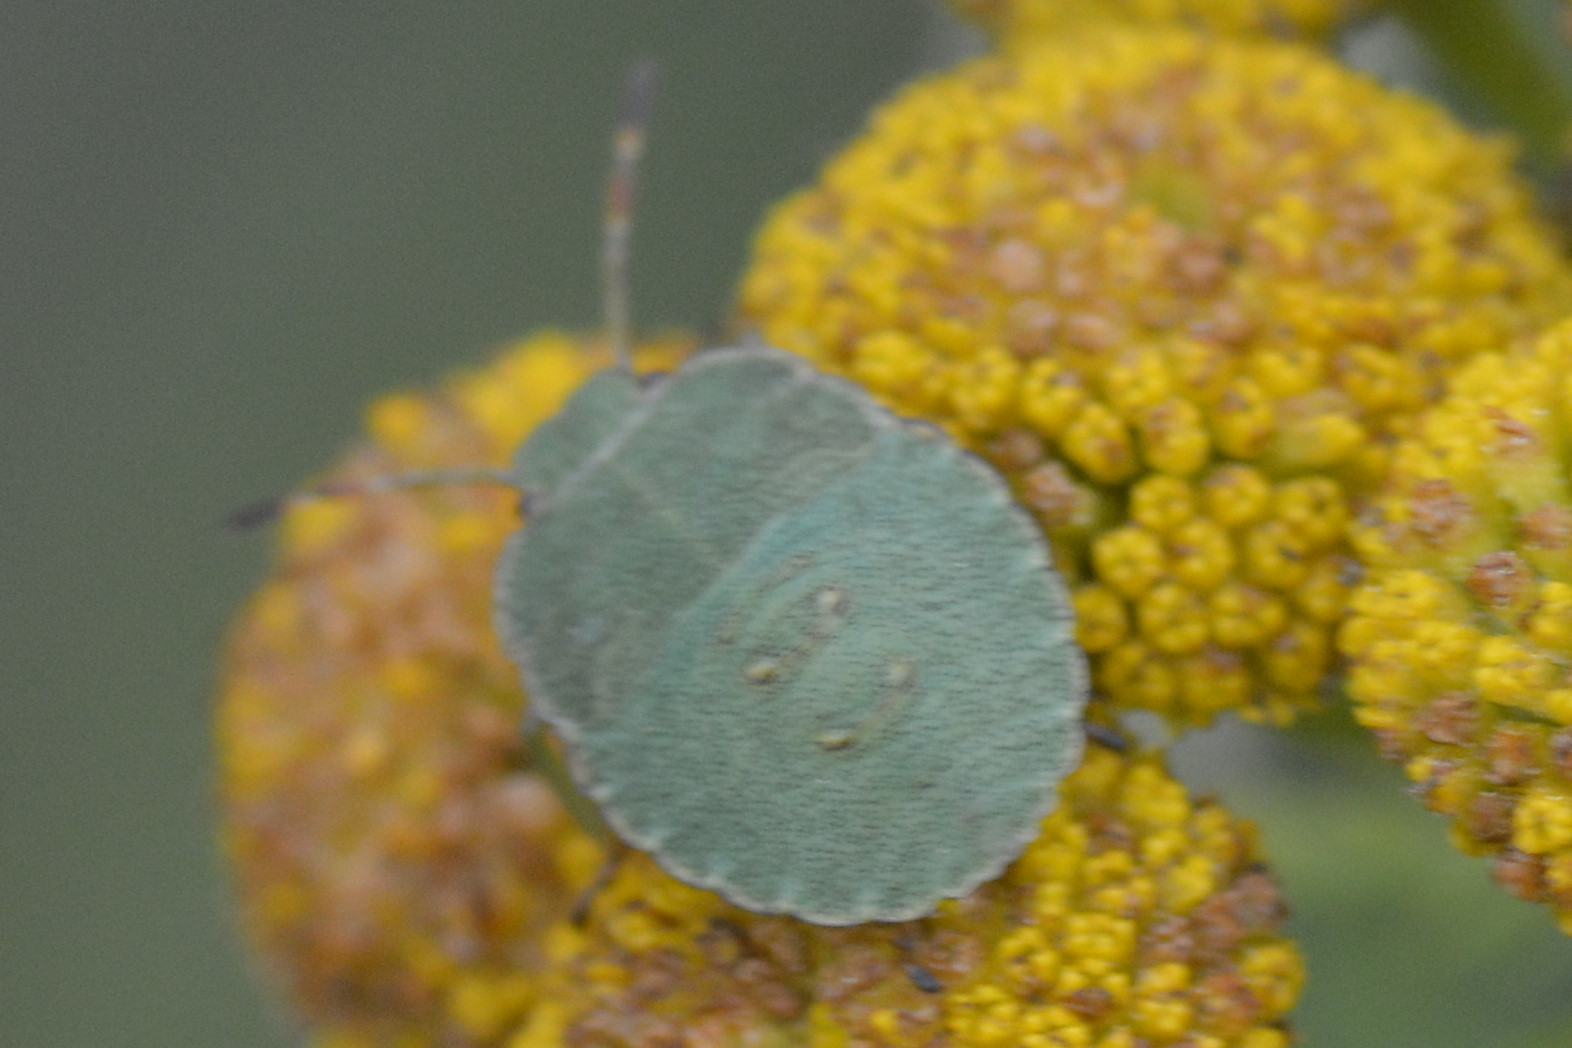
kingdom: Animalia
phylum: Arthropoda
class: Insecta
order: Hemiptera
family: Pentatomidae
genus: Palomena
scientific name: Palomena prasina
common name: Green shieldbug
